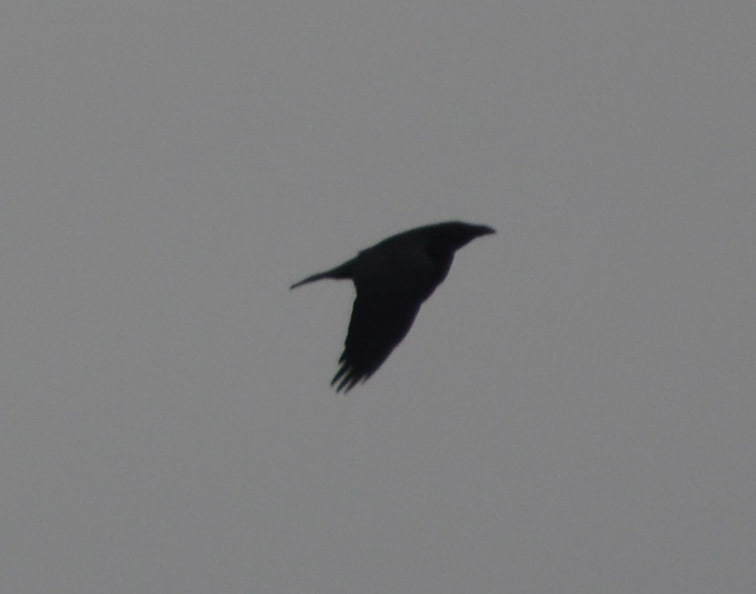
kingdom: Animalia
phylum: Chordata
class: Aves
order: Passeriformes
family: Corvidae
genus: Corvus
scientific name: Corvus corax
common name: Common raven
